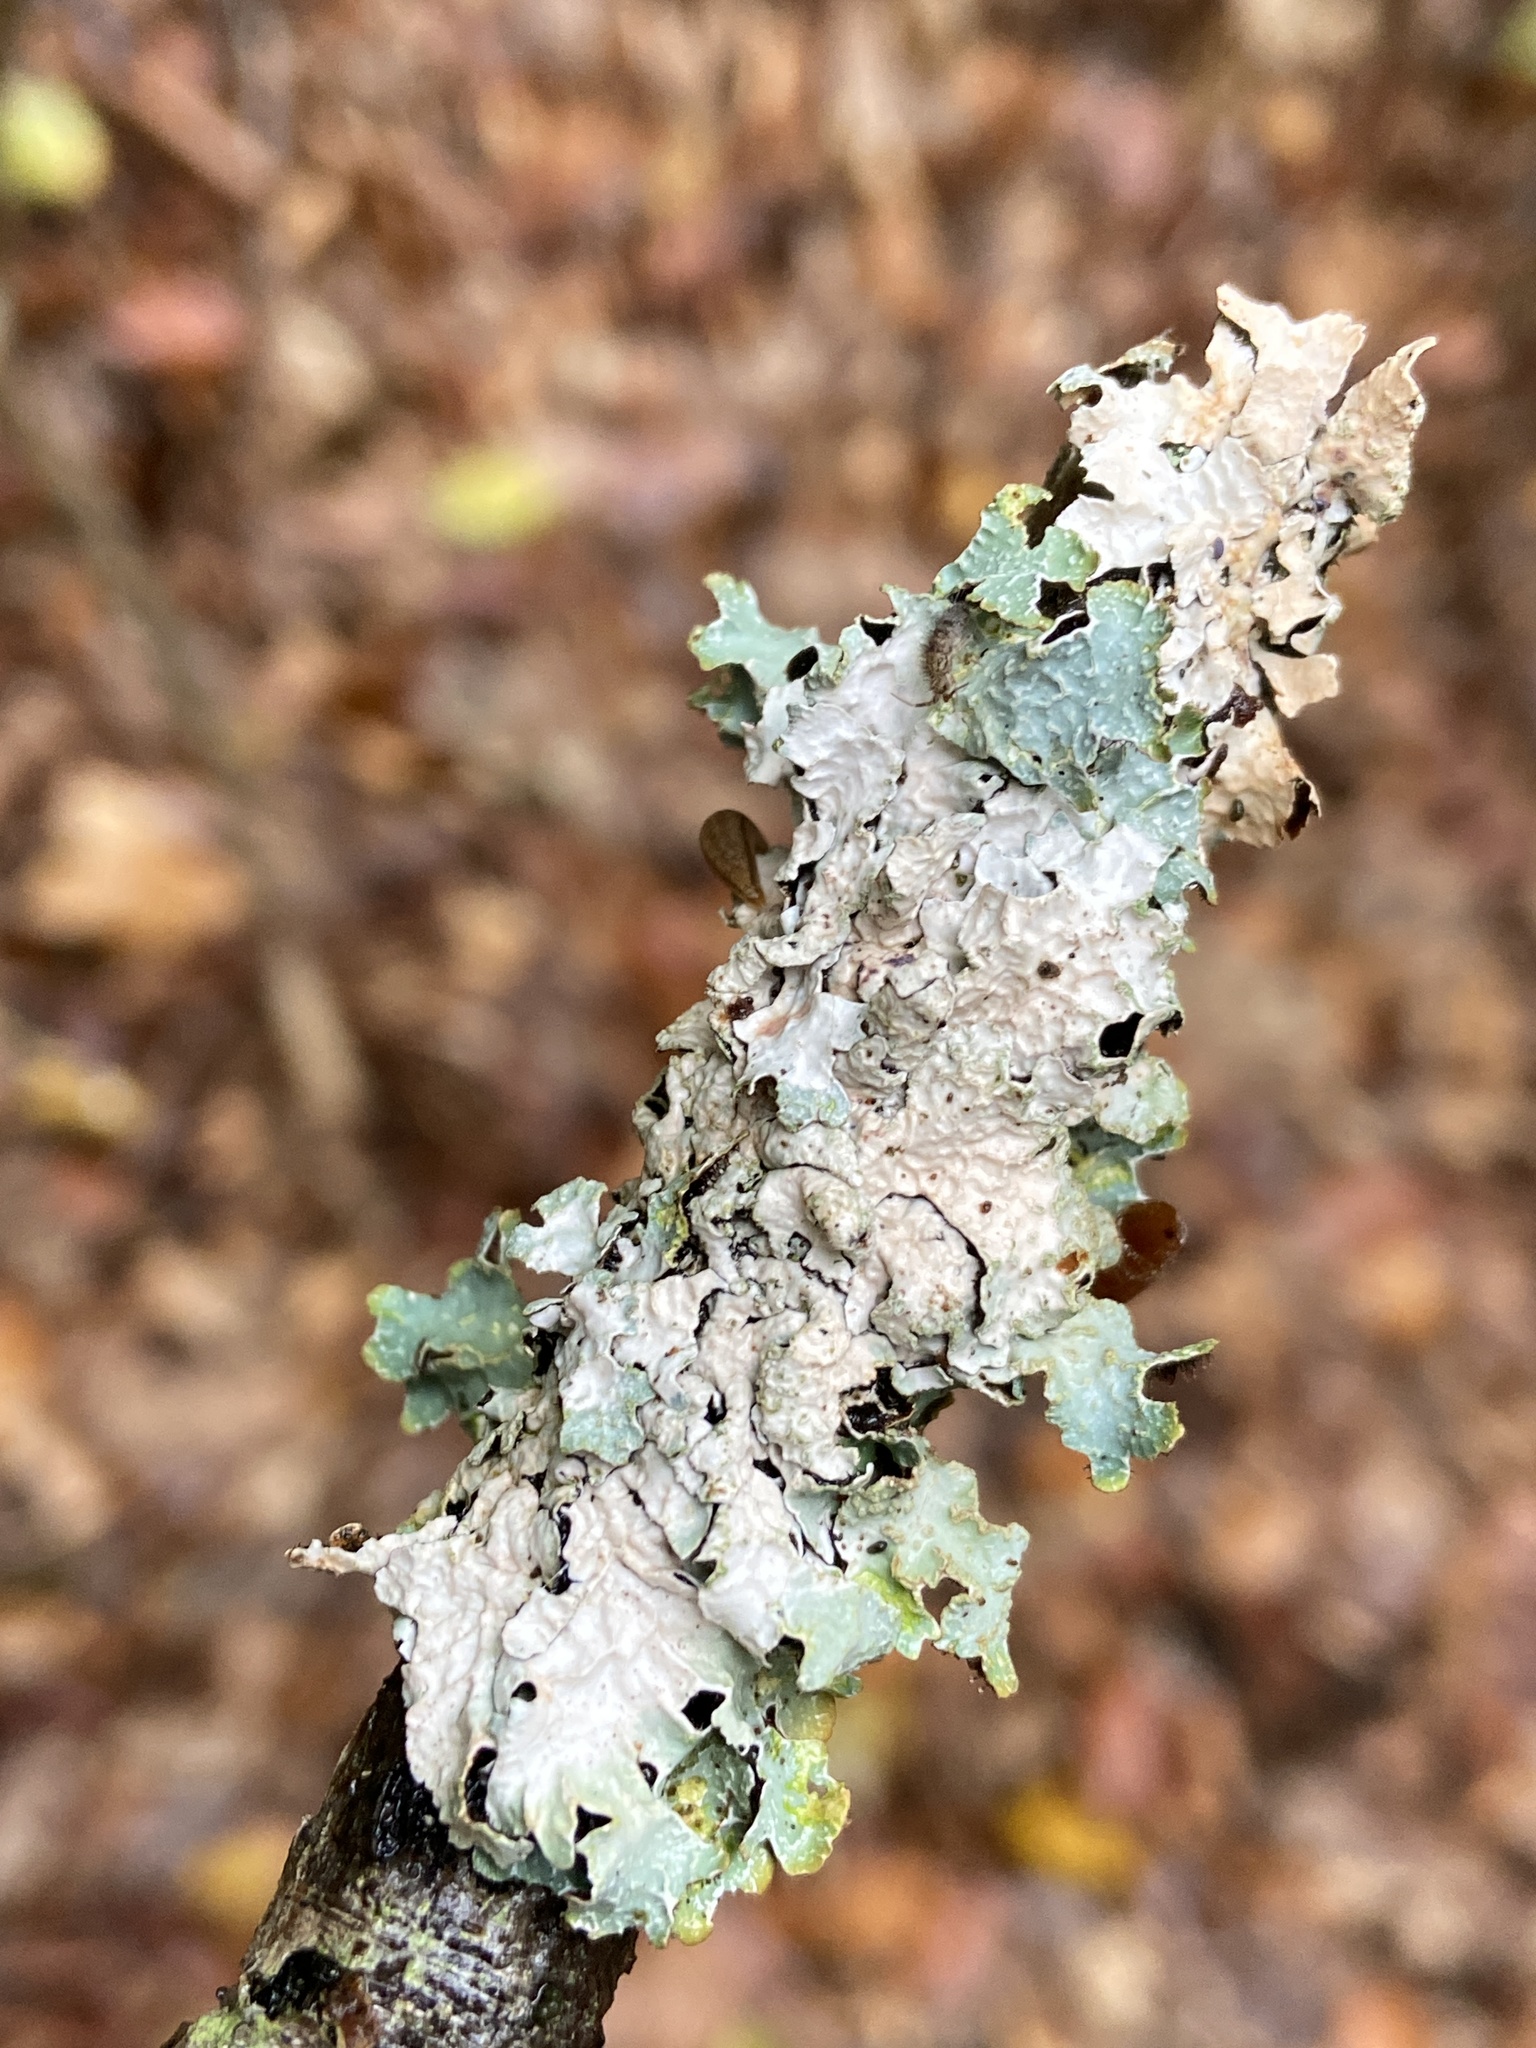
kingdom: Fungi
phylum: Ascomycota
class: Lecanoromycetes
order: Lecanorales
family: Parmeliaceae
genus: Parmelia
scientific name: Parmelia sulcata
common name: Netted shield lichen
